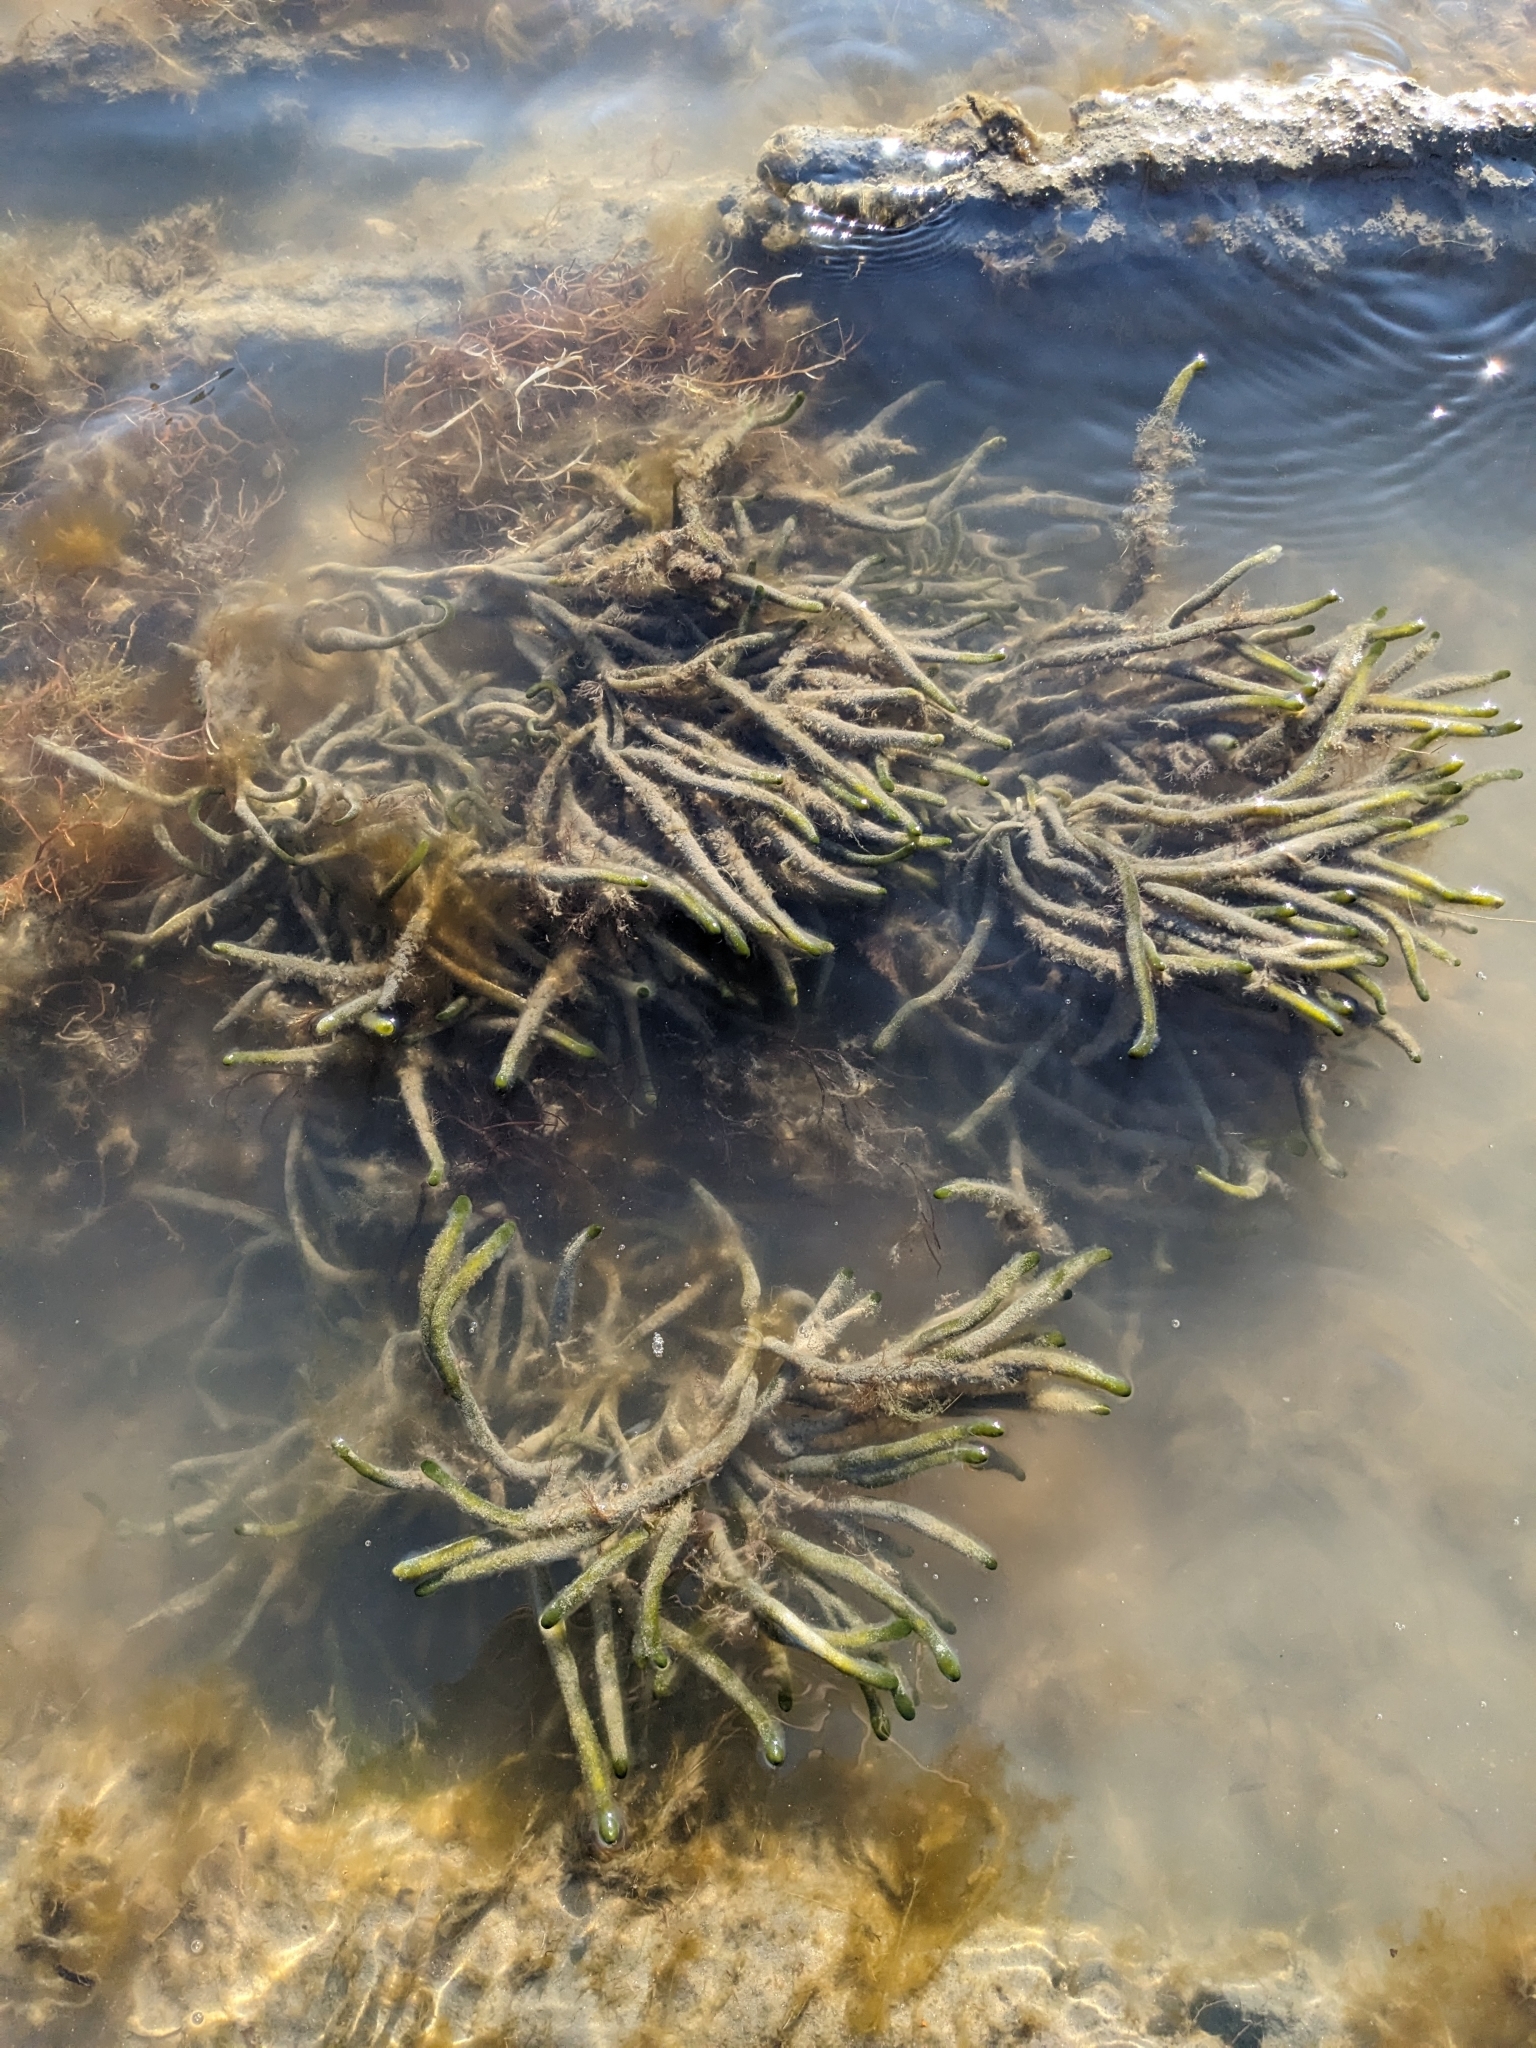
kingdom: Plantae
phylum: Chlorophyta
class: Ulvophyceae
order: Bryopsidales
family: Codiaceae
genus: Codium
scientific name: Codium fragile
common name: Dead man's fingers
